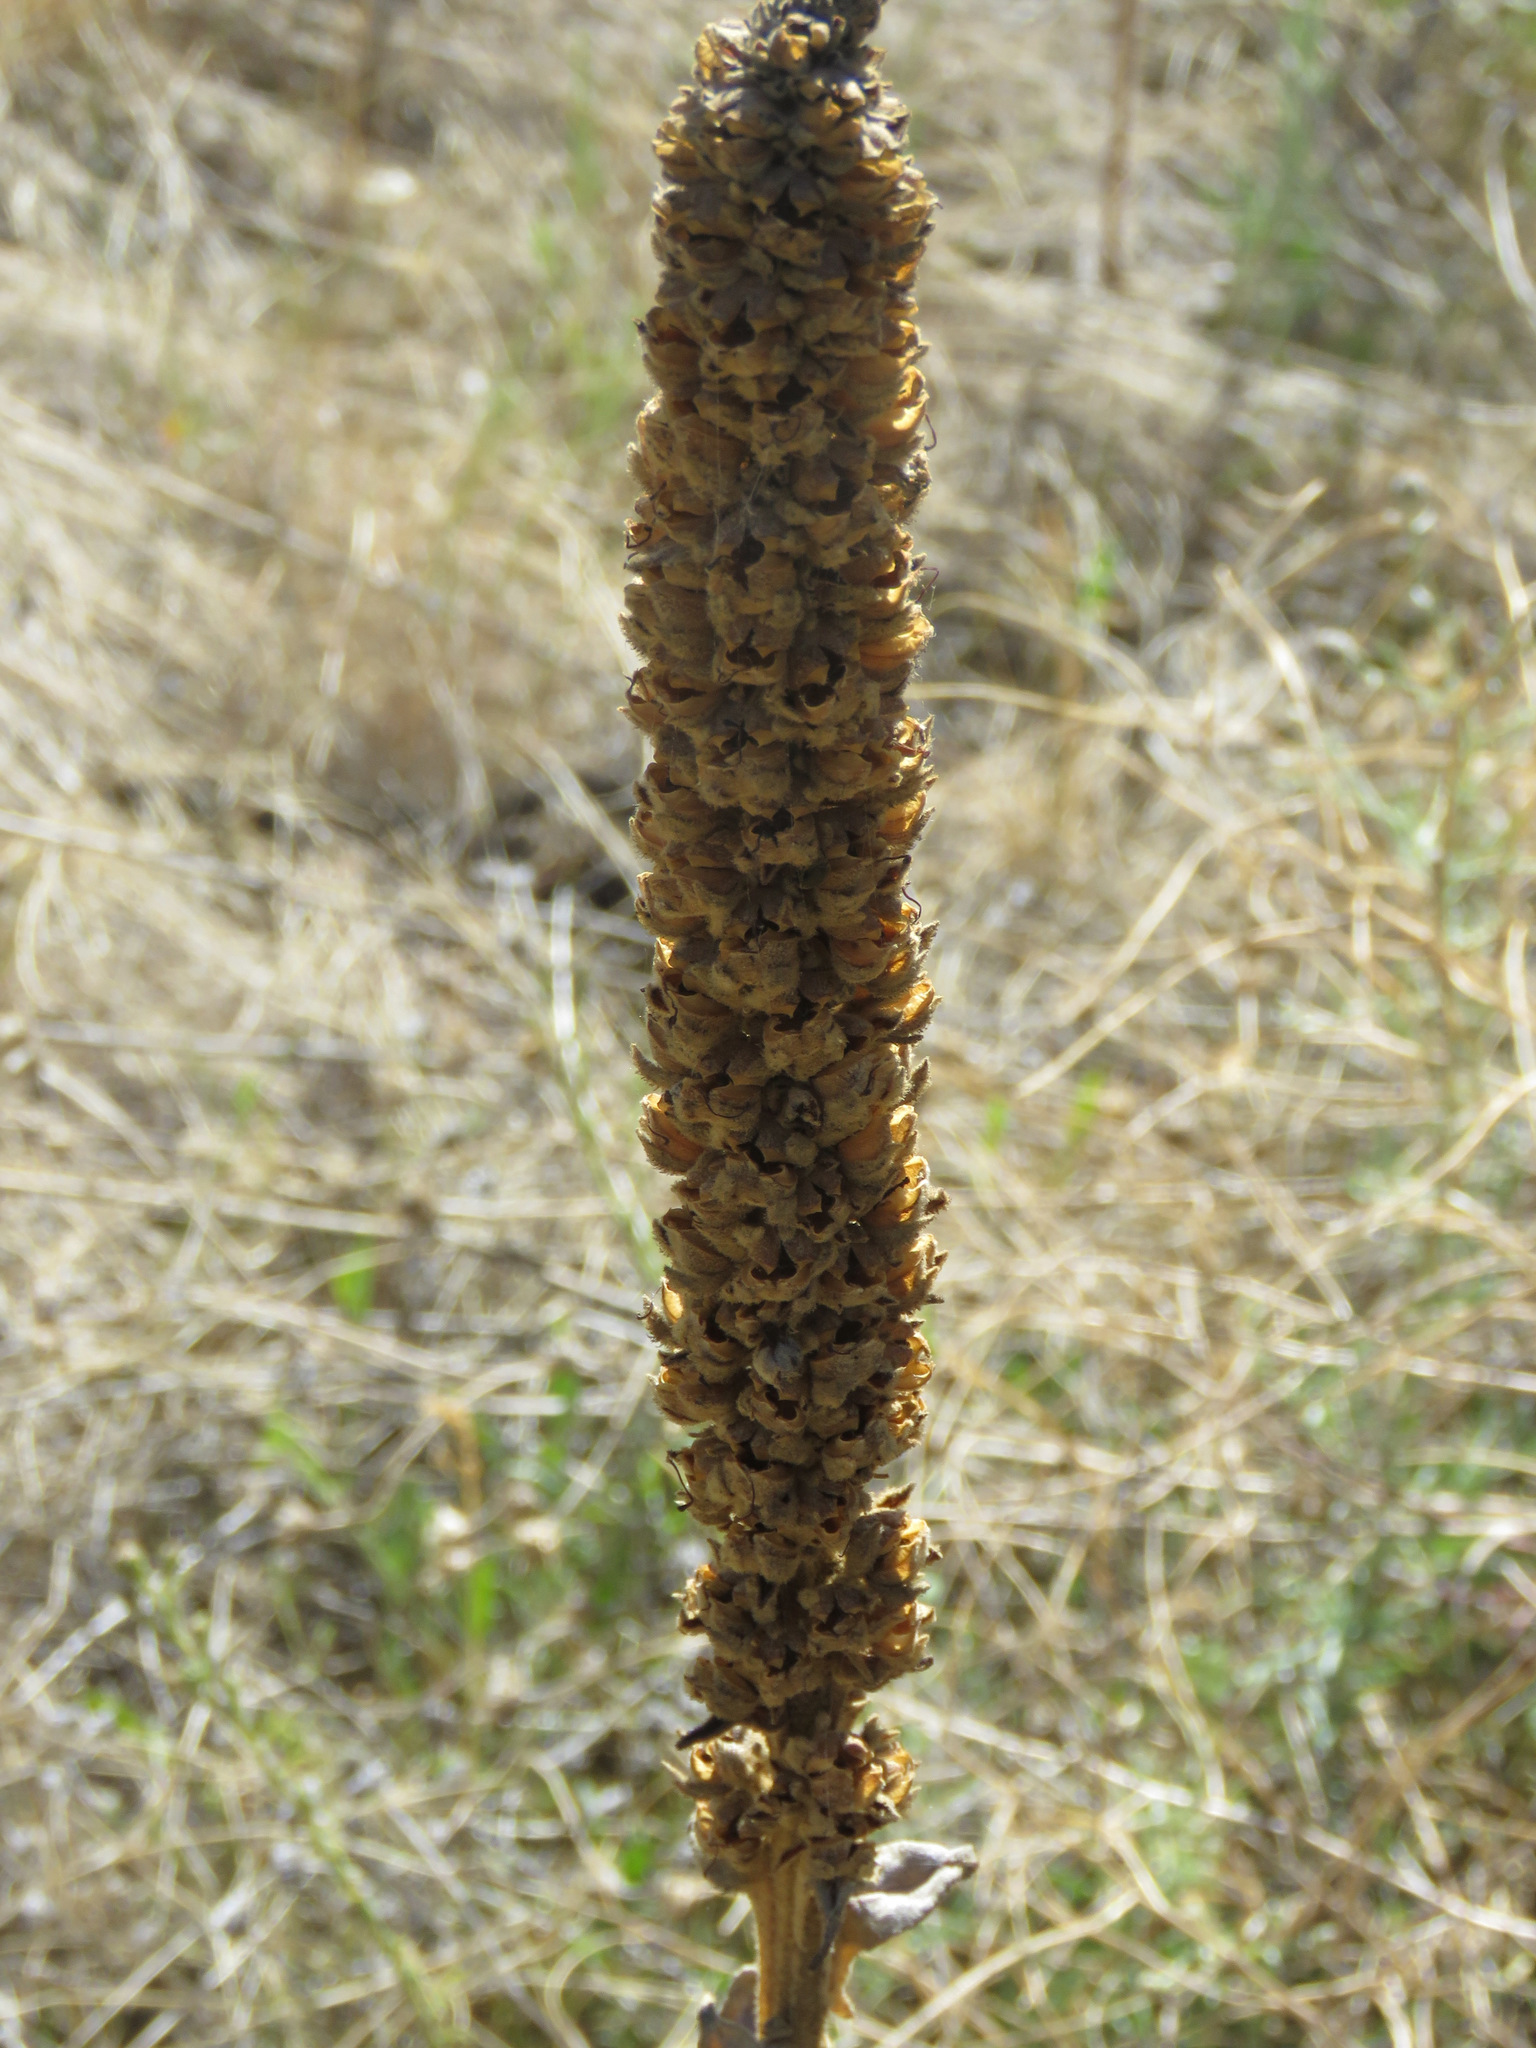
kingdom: Plantae
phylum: Tracheophyta
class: Magnoliopsida
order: Lamiales
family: Scrophulariaceae
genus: Verbascum
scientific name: Verbascum thapsus
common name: Common mullein
